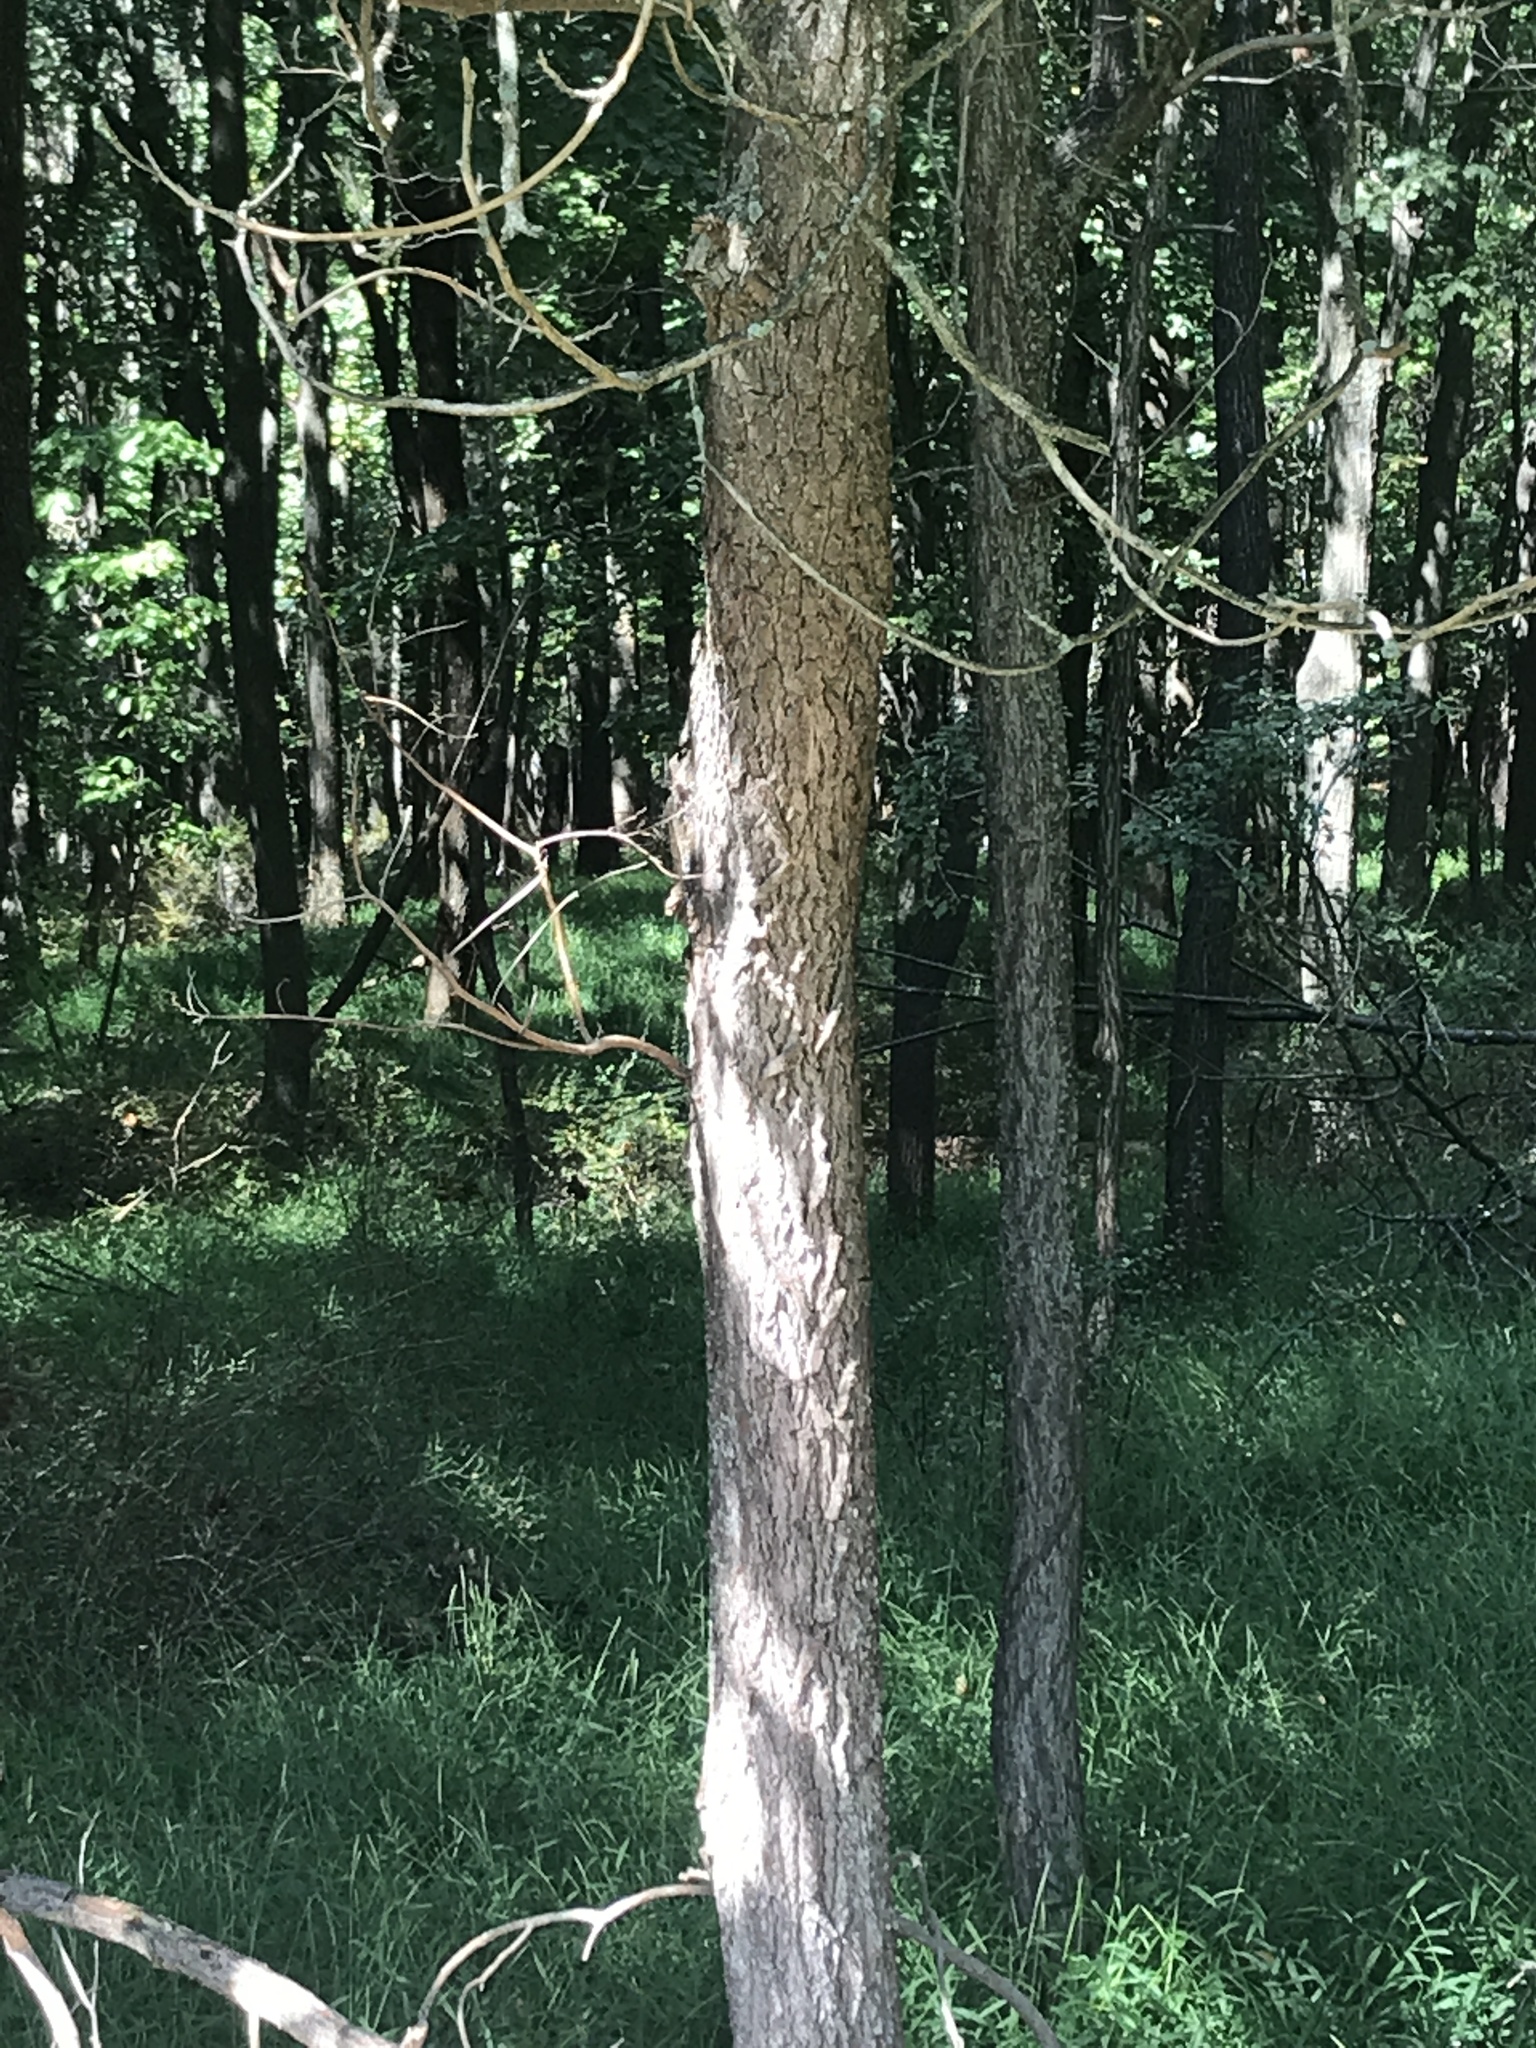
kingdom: Plantae
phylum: Tracheophyta
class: Magnoliopsida
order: Laurales
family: Lauraceae
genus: Sassafras
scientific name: Sassafras albidum
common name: Sassafras
